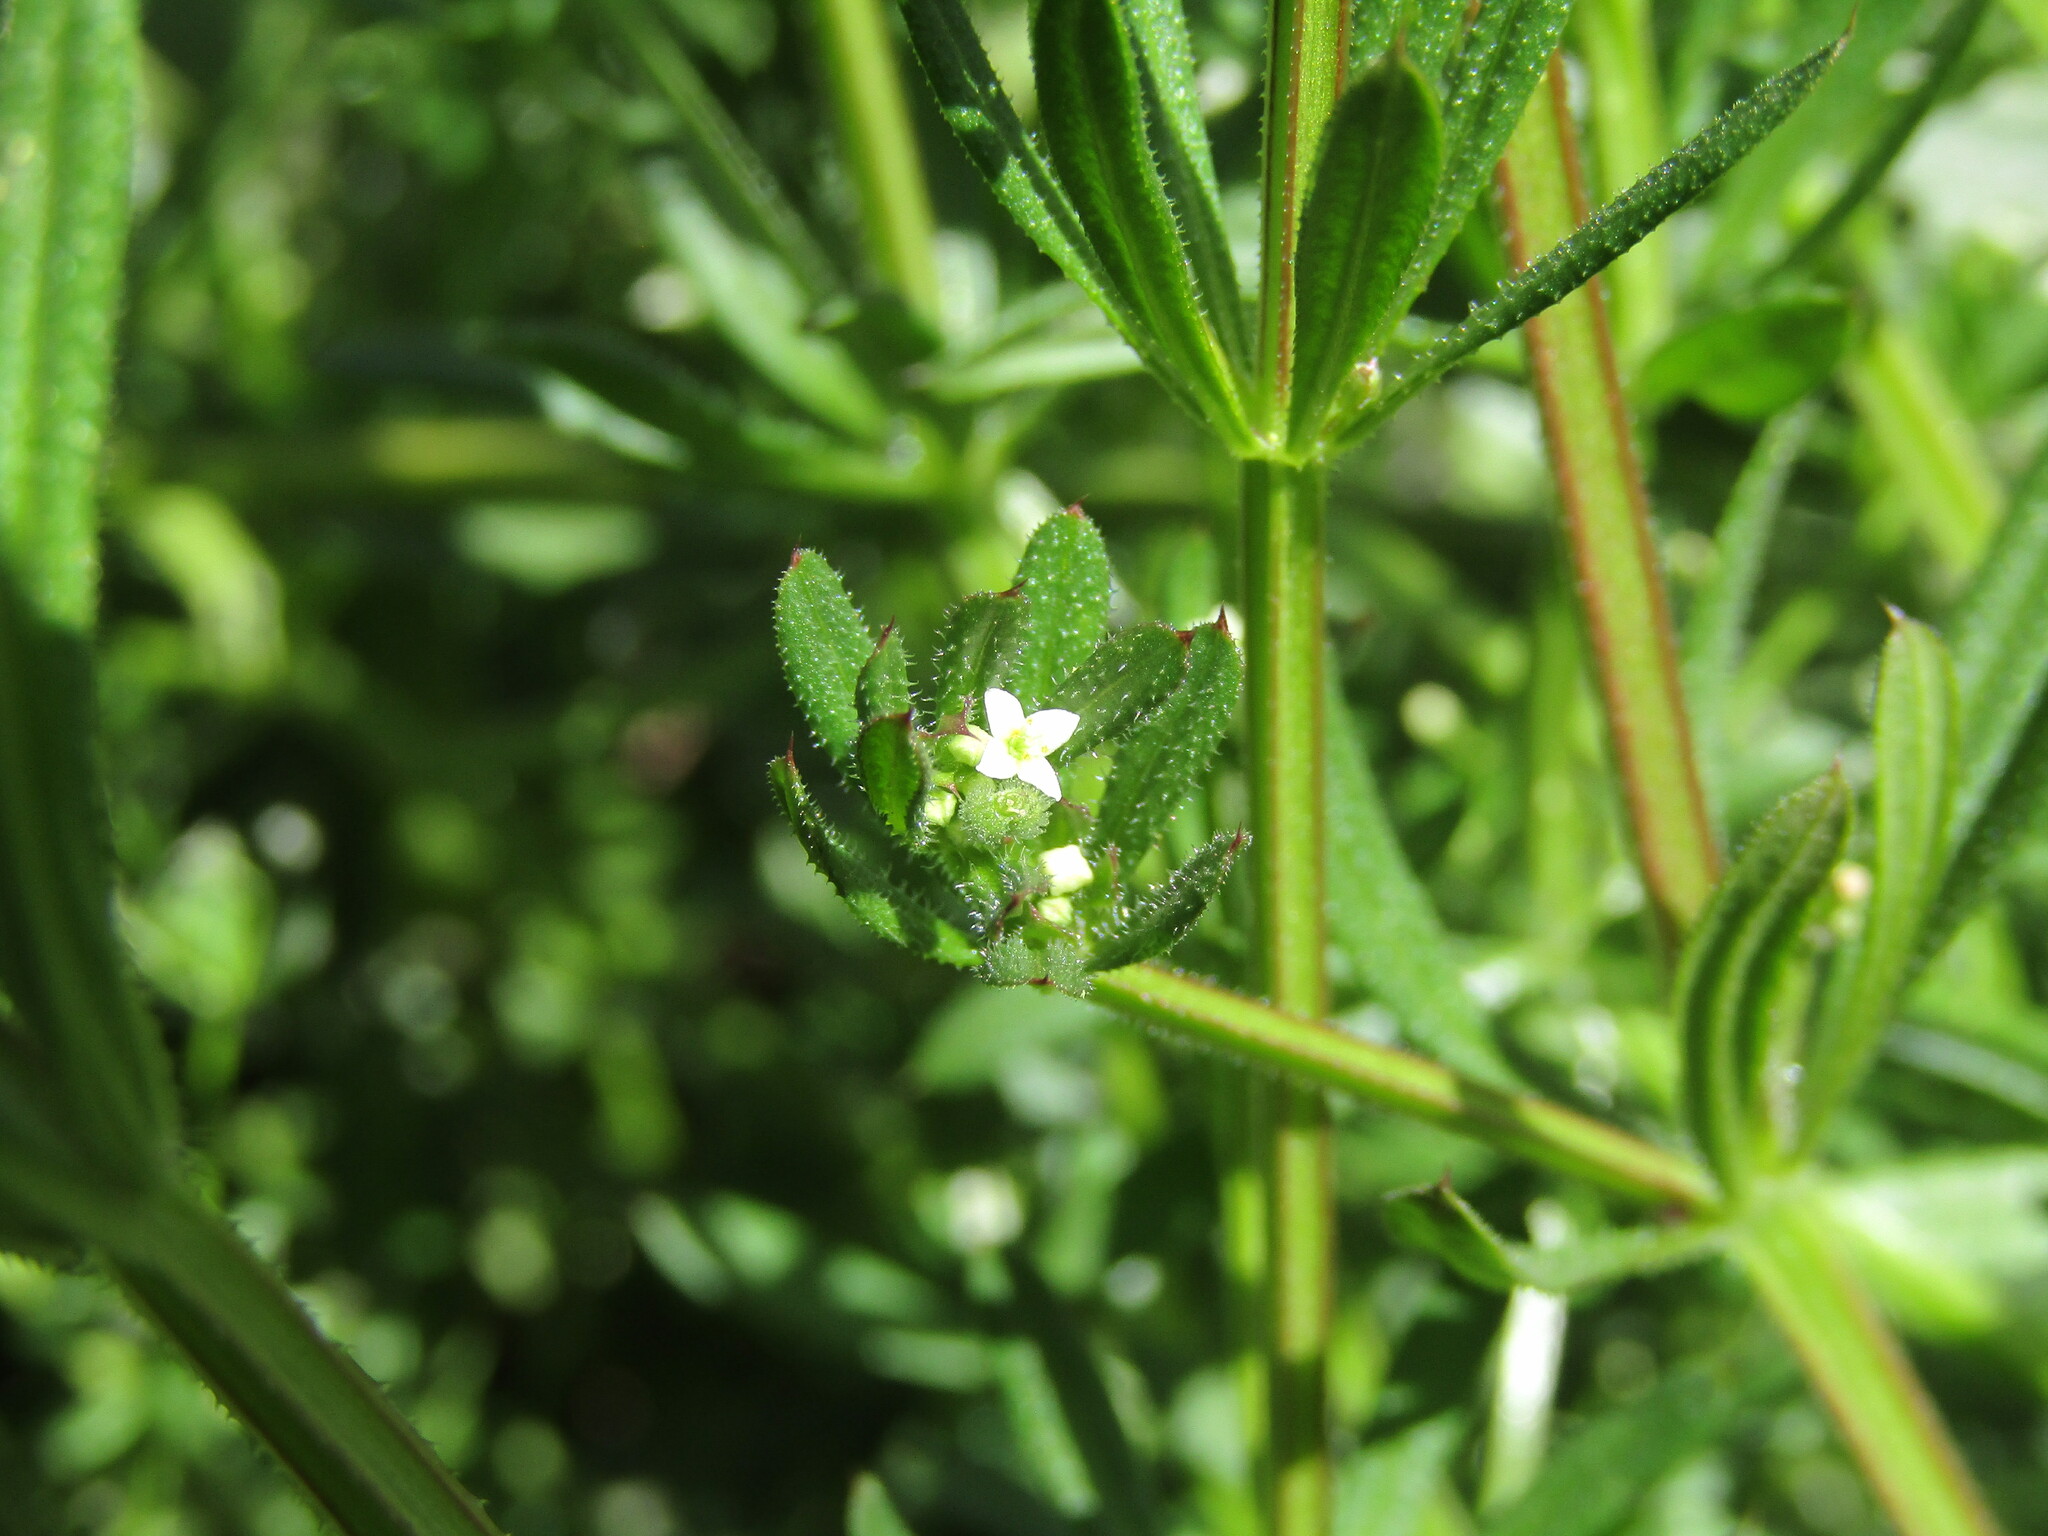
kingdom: Plantae
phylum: Tracheophyta
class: Magnoliopsida
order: Gentianales
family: Rubiaceae
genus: Galium
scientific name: Galium aparine
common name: Cleavers
